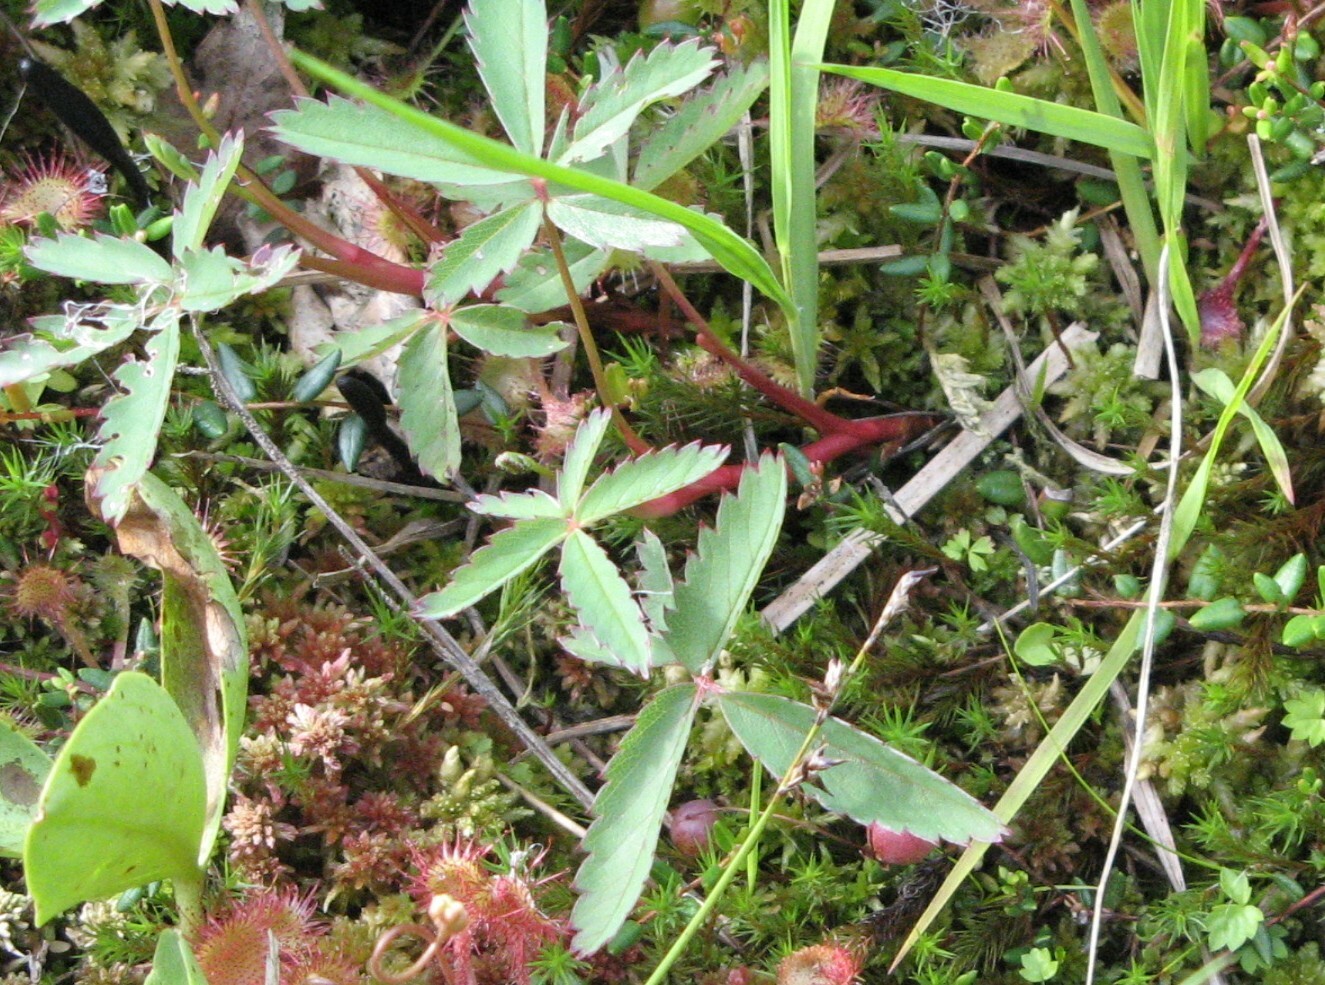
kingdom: Plantae
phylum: Tracheophyta
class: Magnoliopsida
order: Rosales
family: Rosaceae
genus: Comarum
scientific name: Comarum palustre
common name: Marsh cinquefoil
